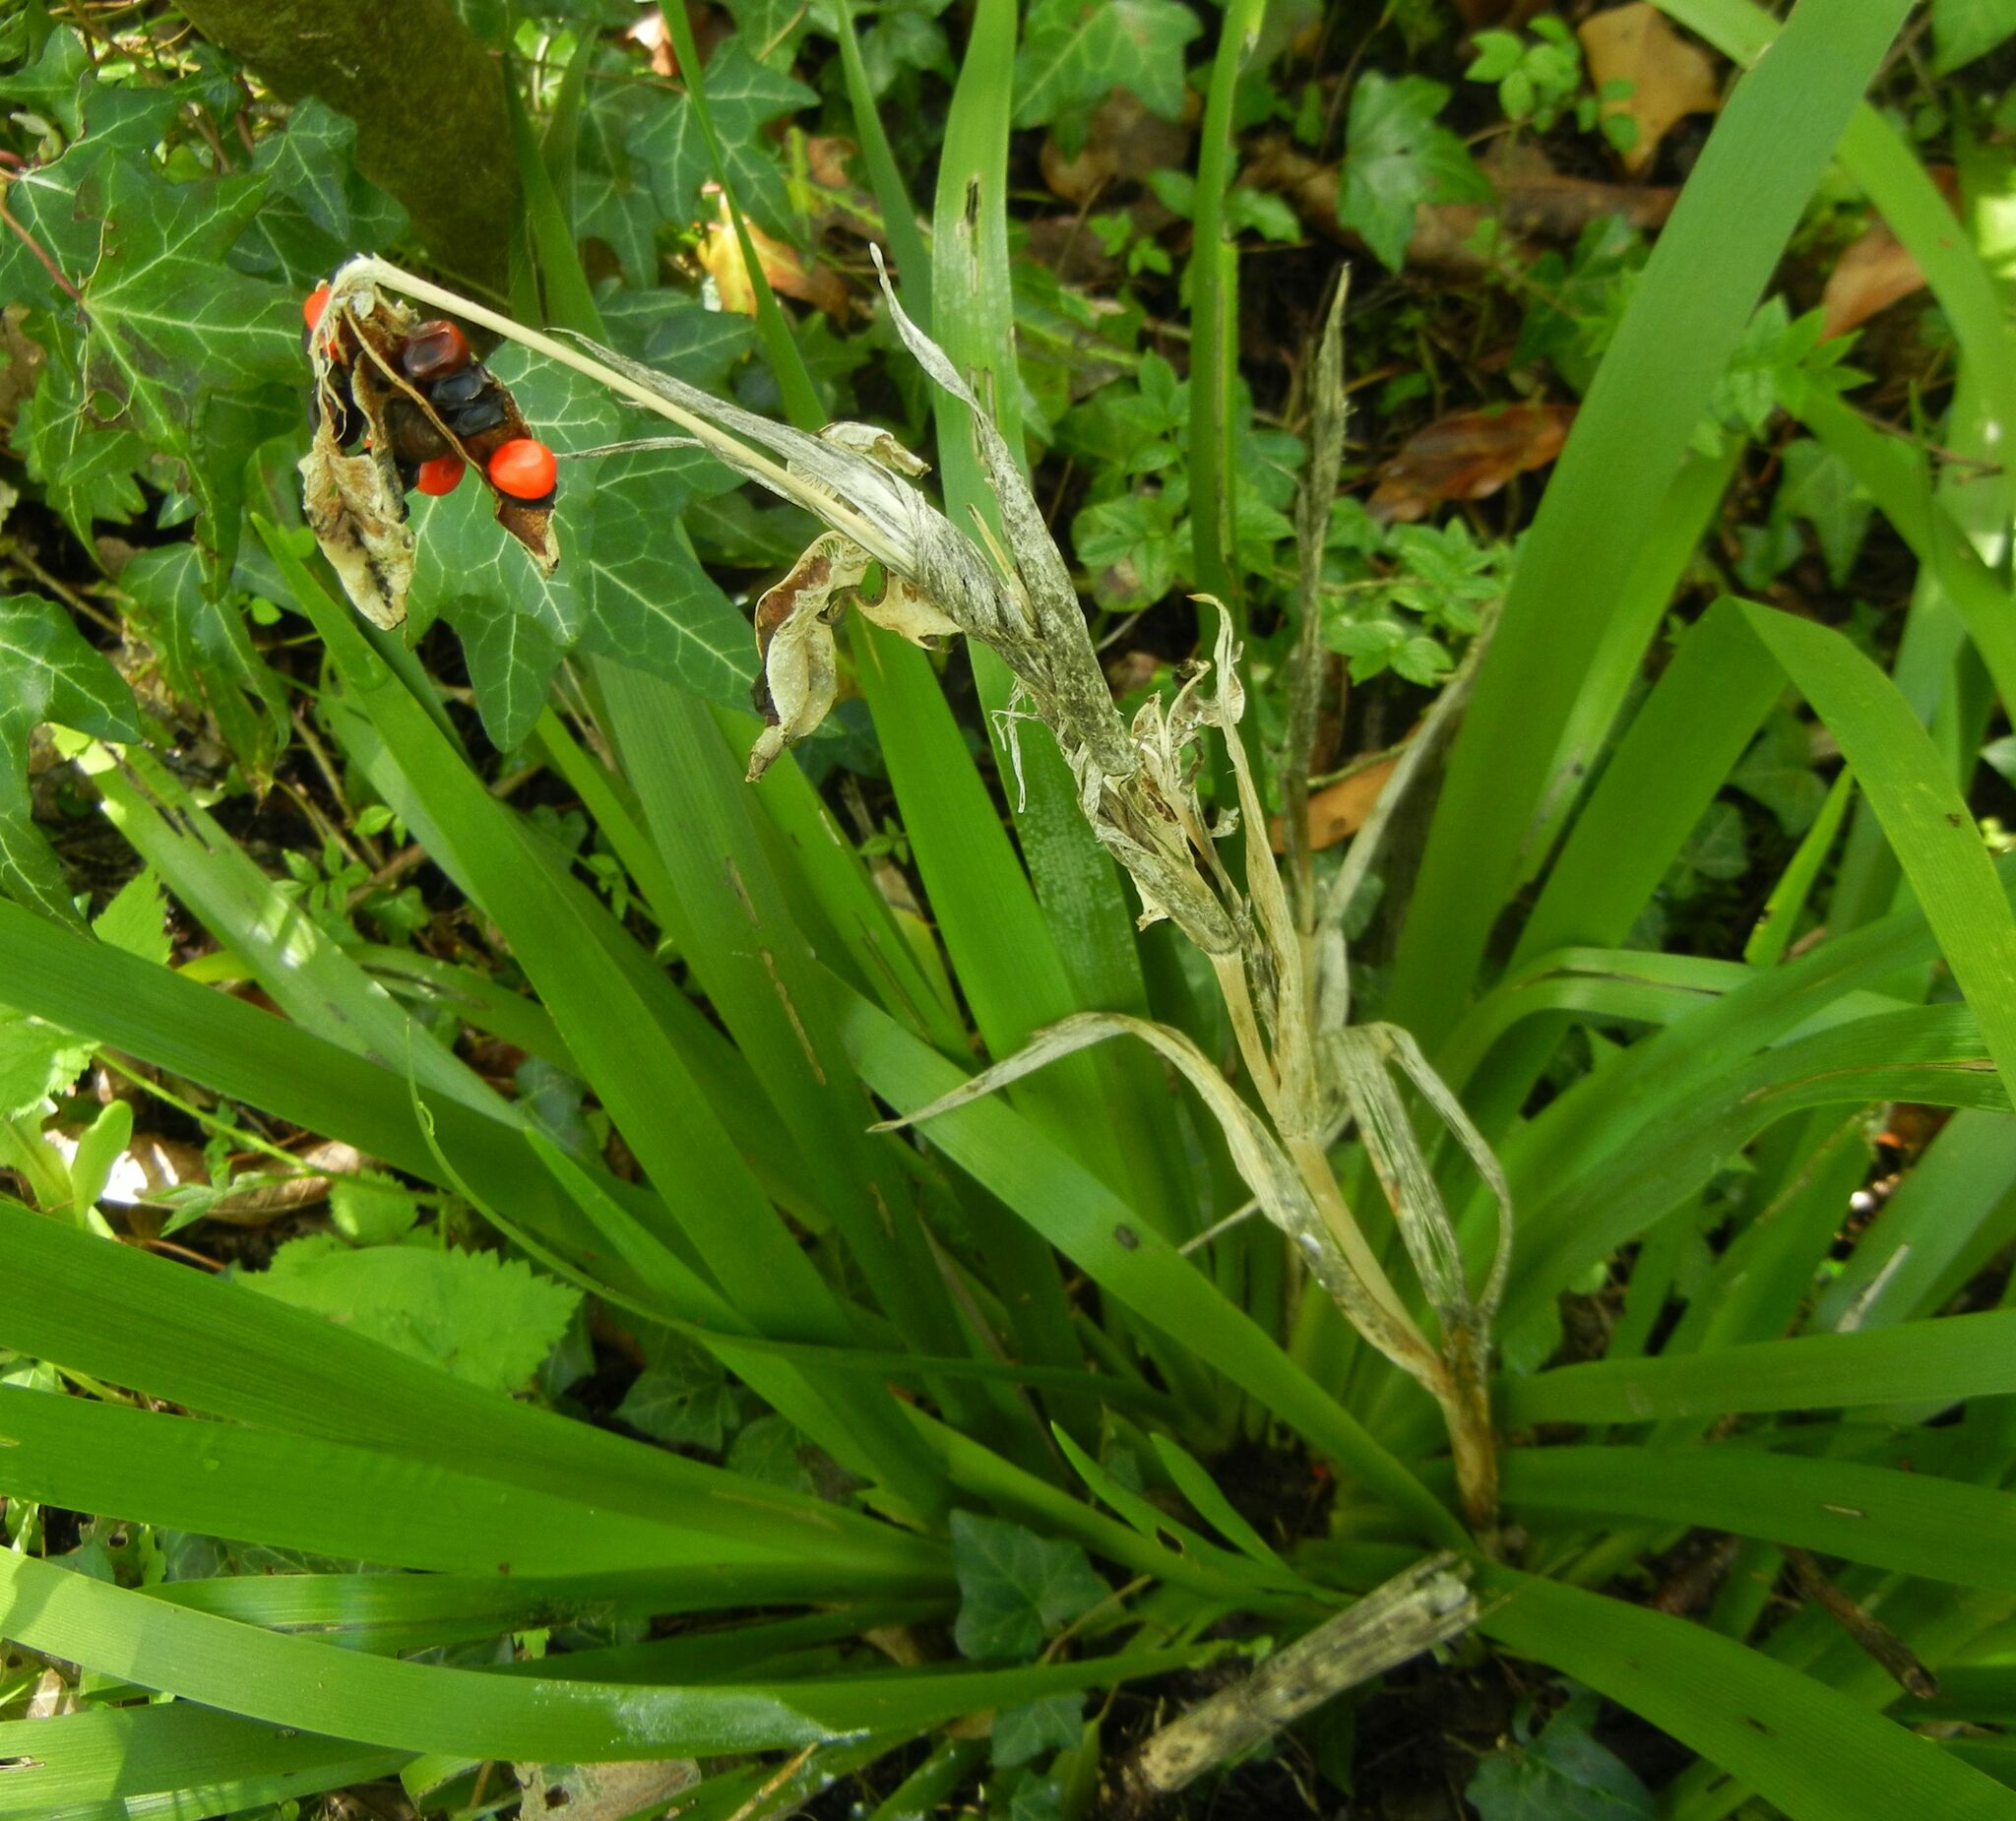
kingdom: Plantae
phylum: Tracheophyta
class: Liliopsida
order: Asparagales
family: Iridaceae
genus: Iris
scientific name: Iris foetidissima
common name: Stinking iris
